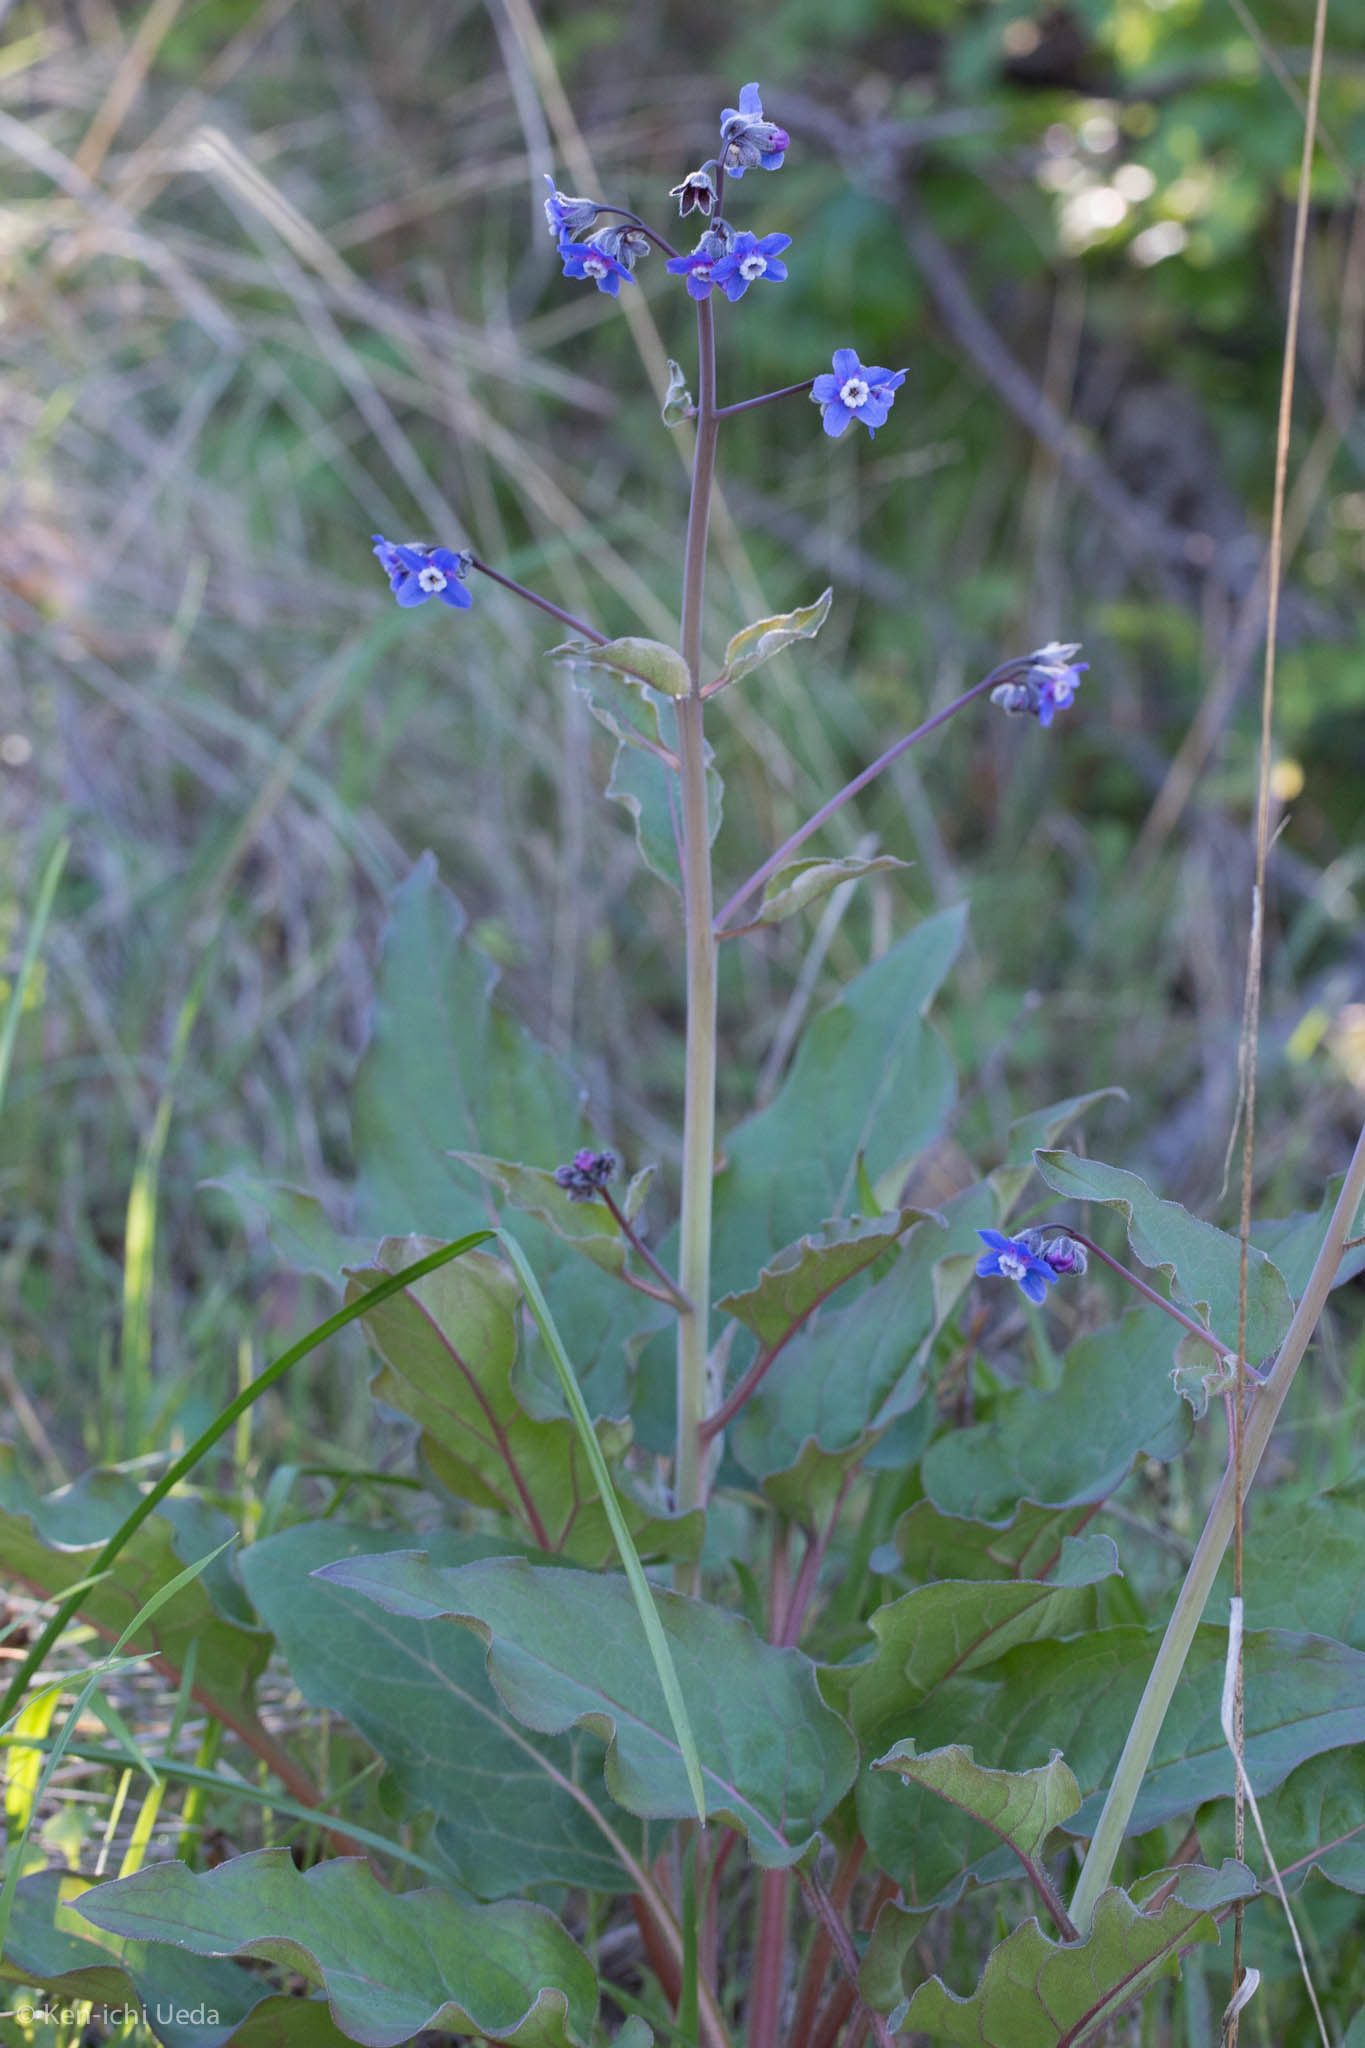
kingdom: Plantae
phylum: Tracheophyta
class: Magnoliopsida
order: Boraginales
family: Boraginaceae
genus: Adelinia
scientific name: Adelinia grande
